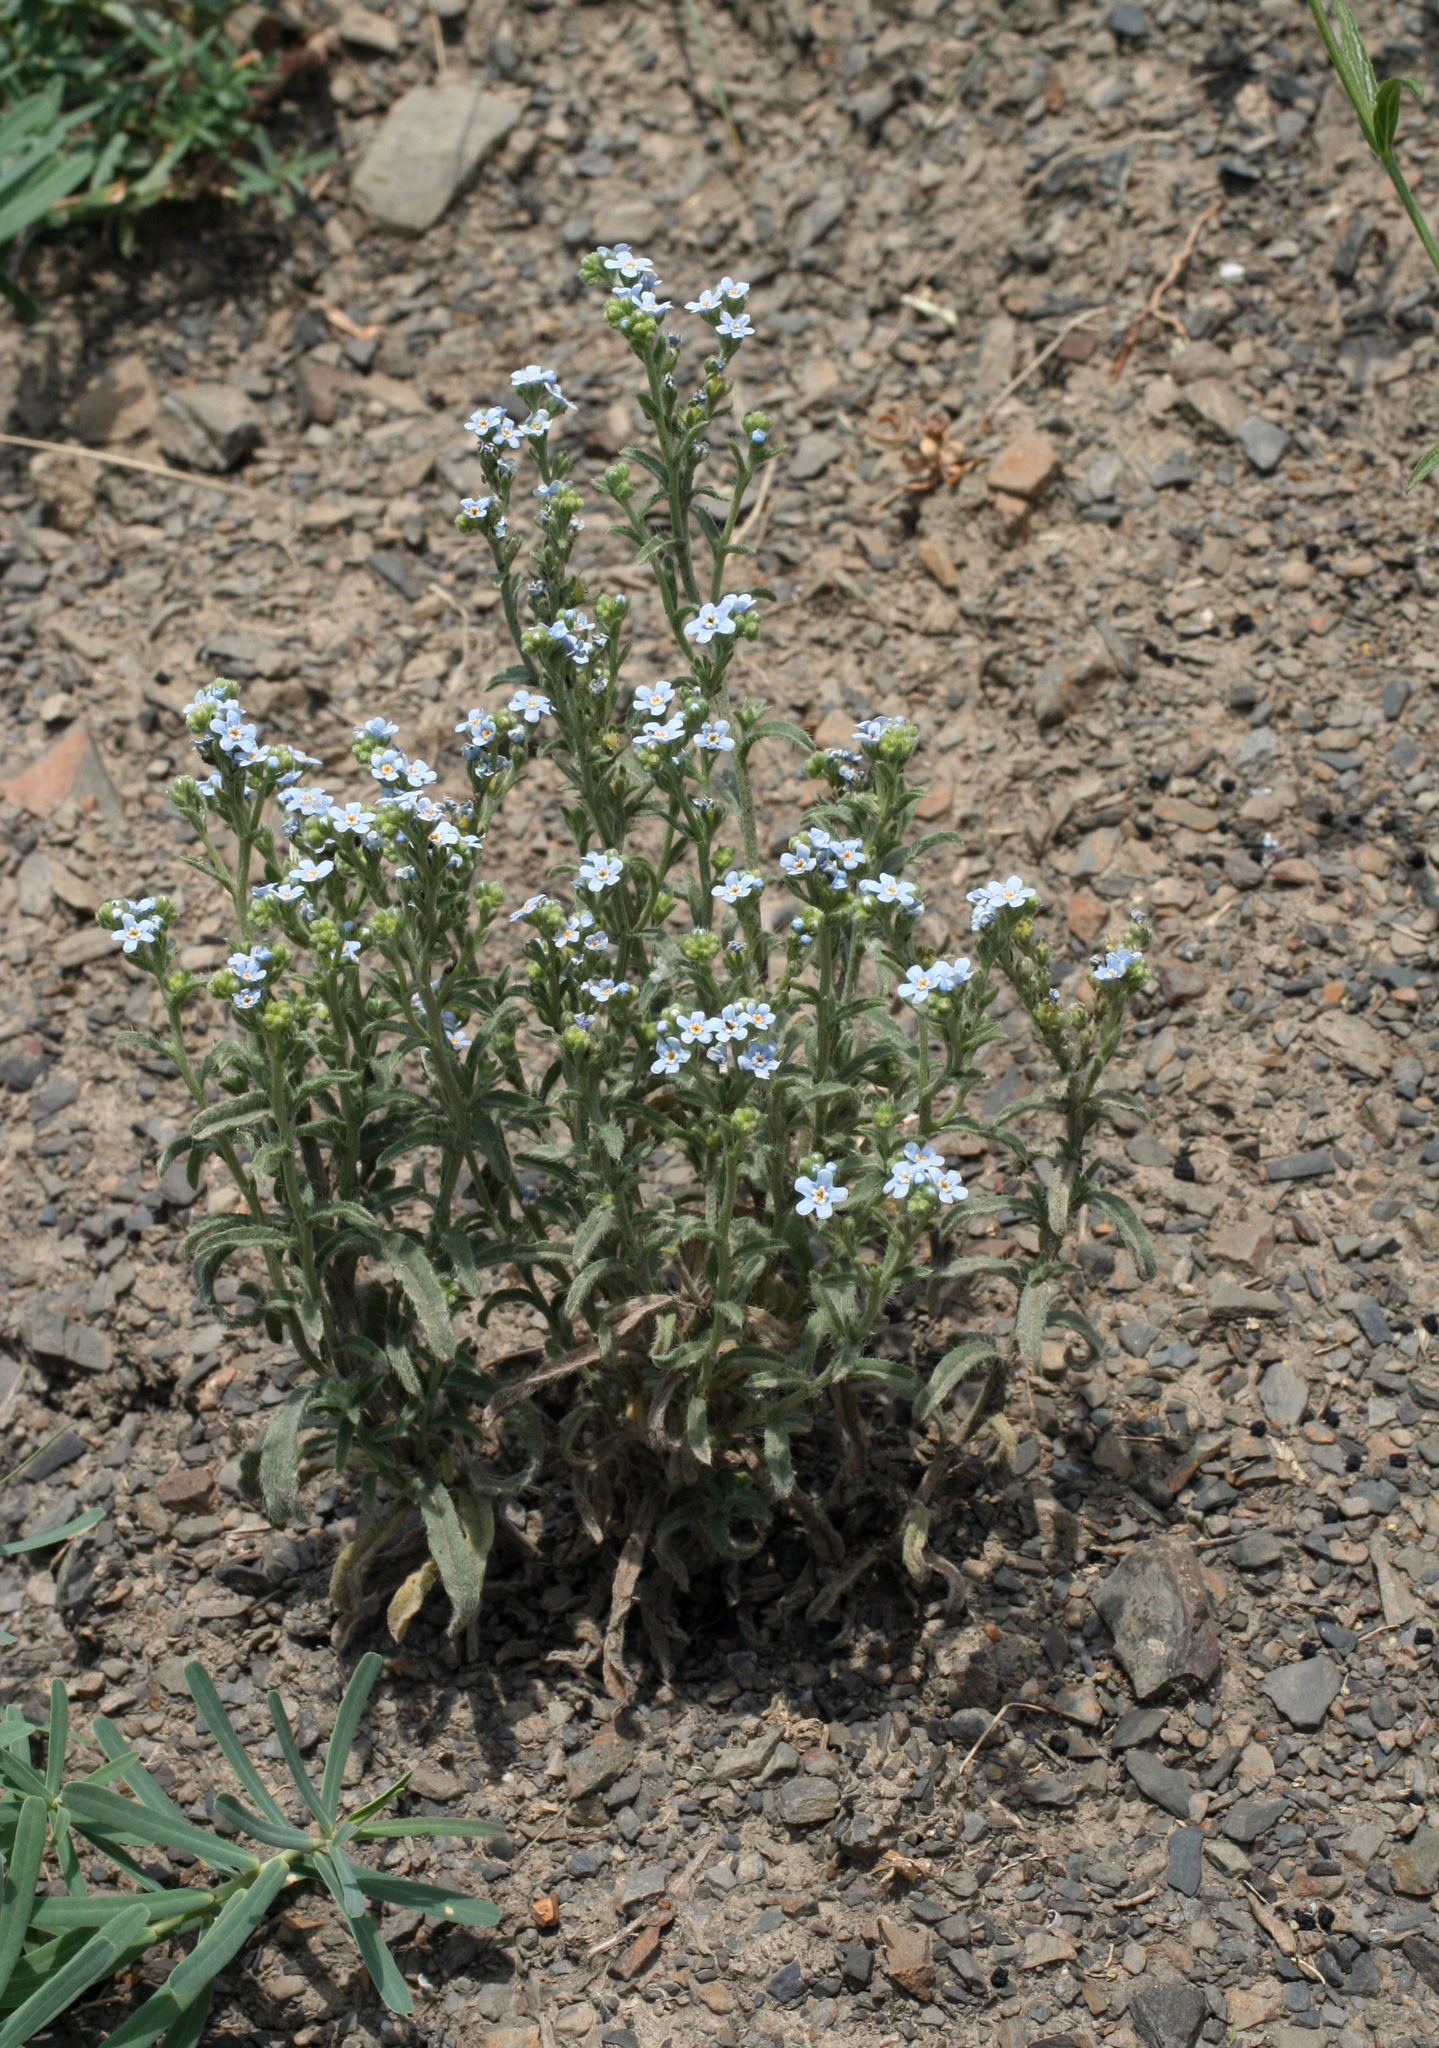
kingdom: Plantae
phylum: Tracheophyta
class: Magnoliopsida
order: Boraginales
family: Boraginaceae
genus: Myosotis
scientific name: Myosotis alpestris
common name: Alpine forget-me-not
